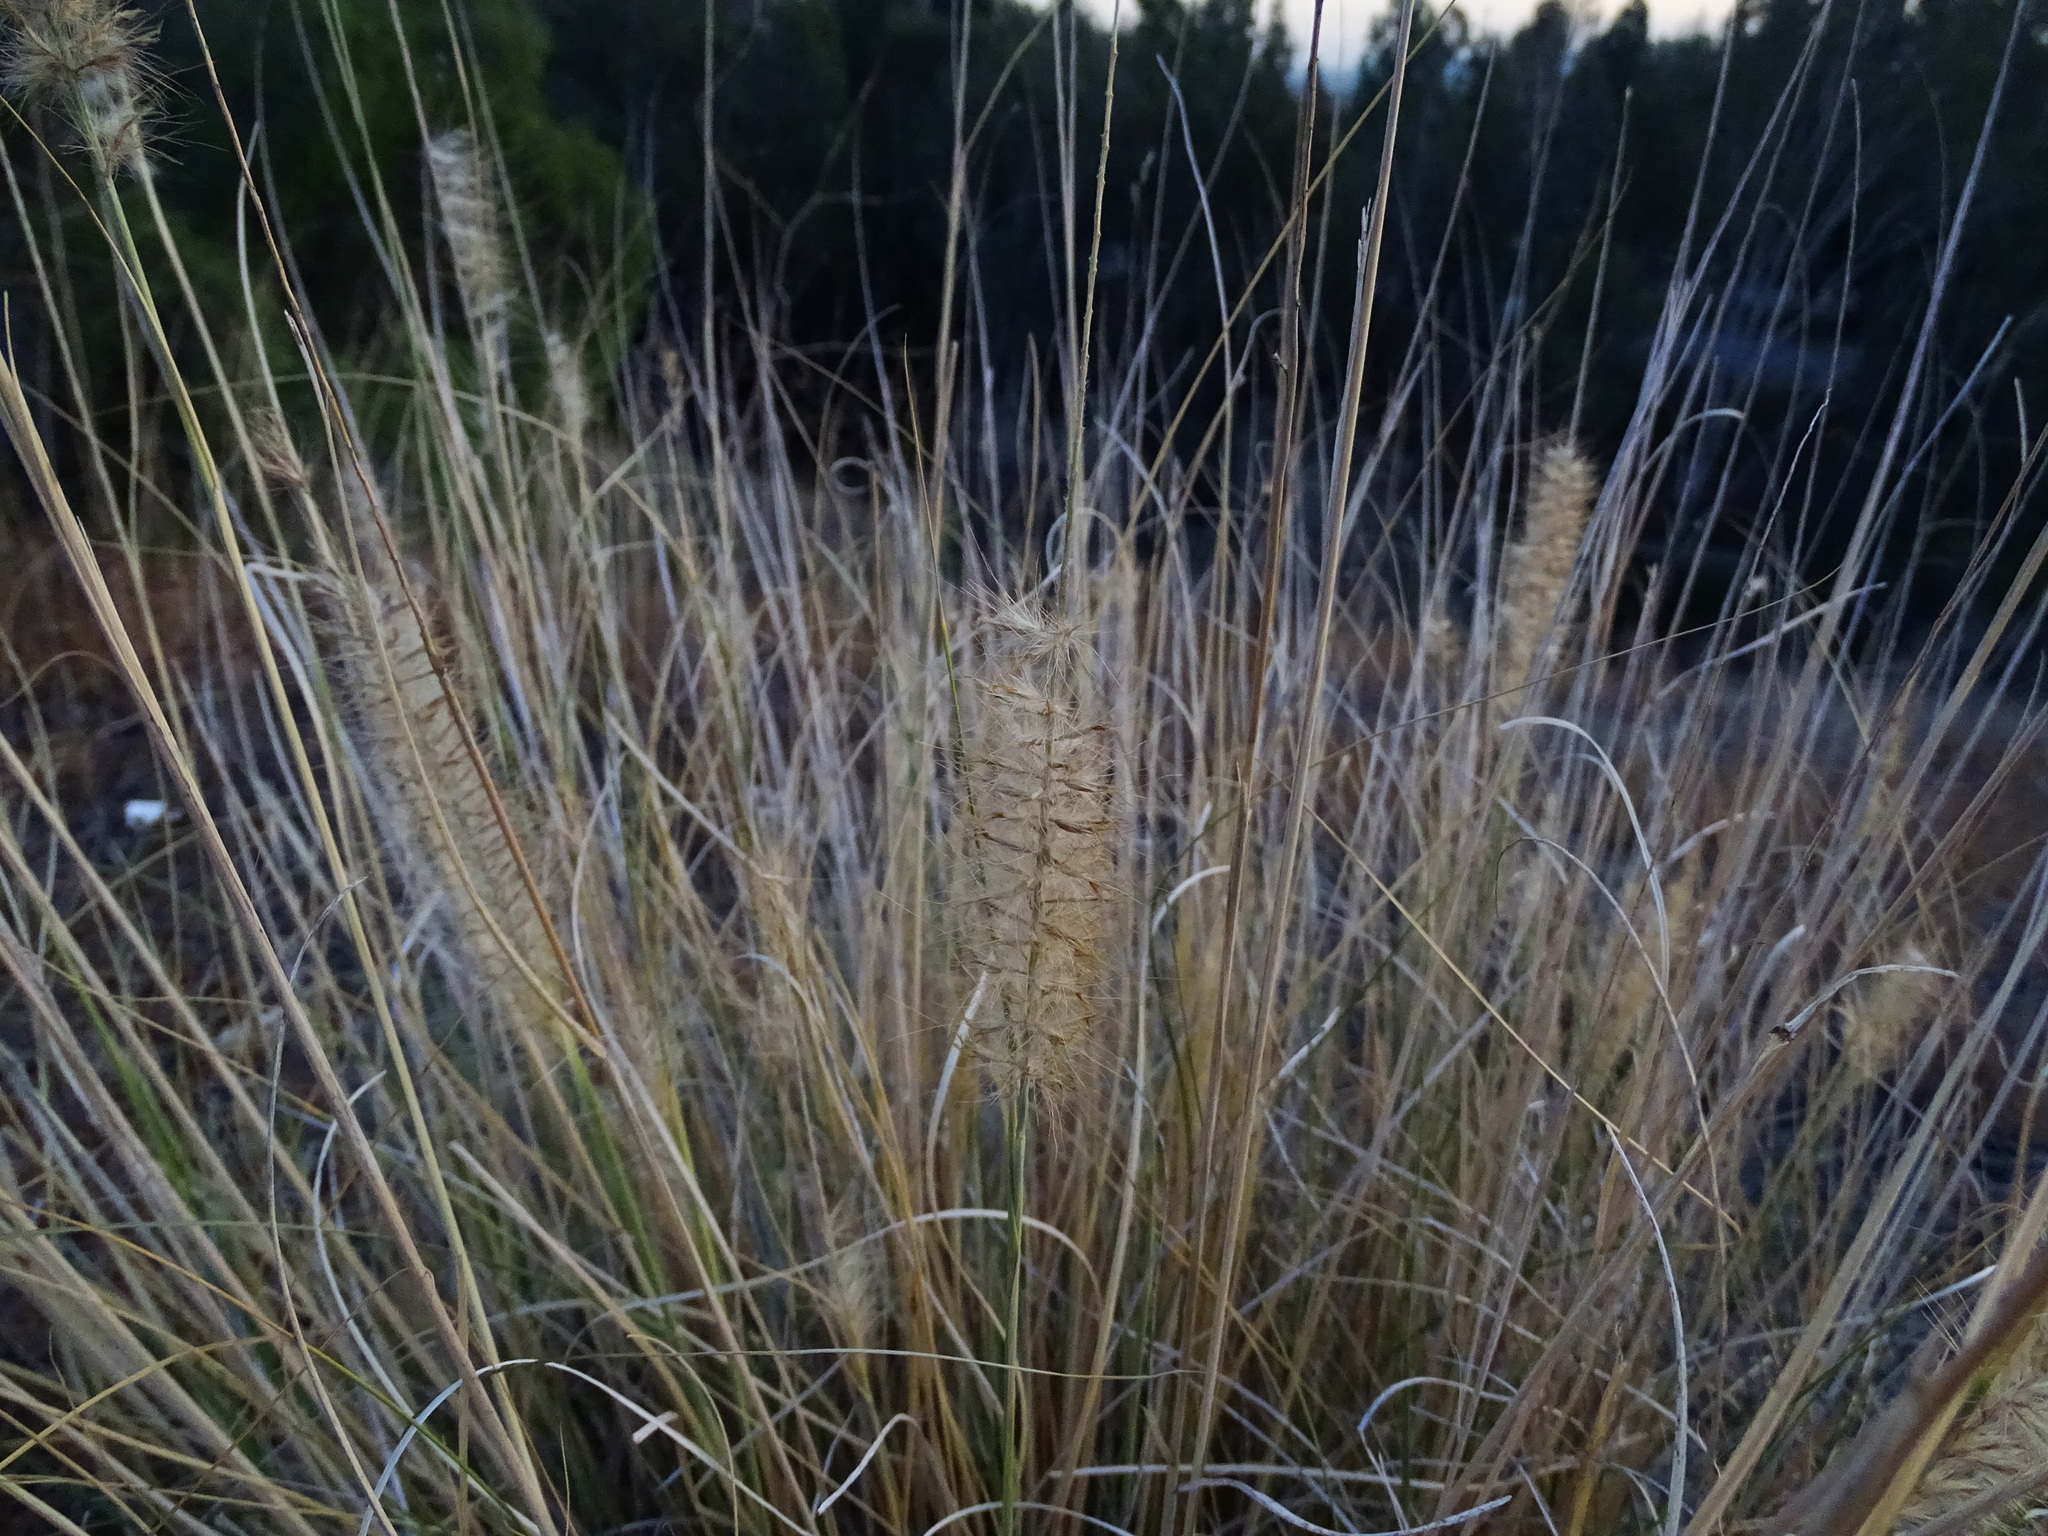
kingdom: Plantae
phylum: Tracheophyta
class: Liliopsida
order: Poales
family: Poaceae
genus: Cenchrus
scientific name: Cenchrus setaceus
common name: Crimson fountaingrass
